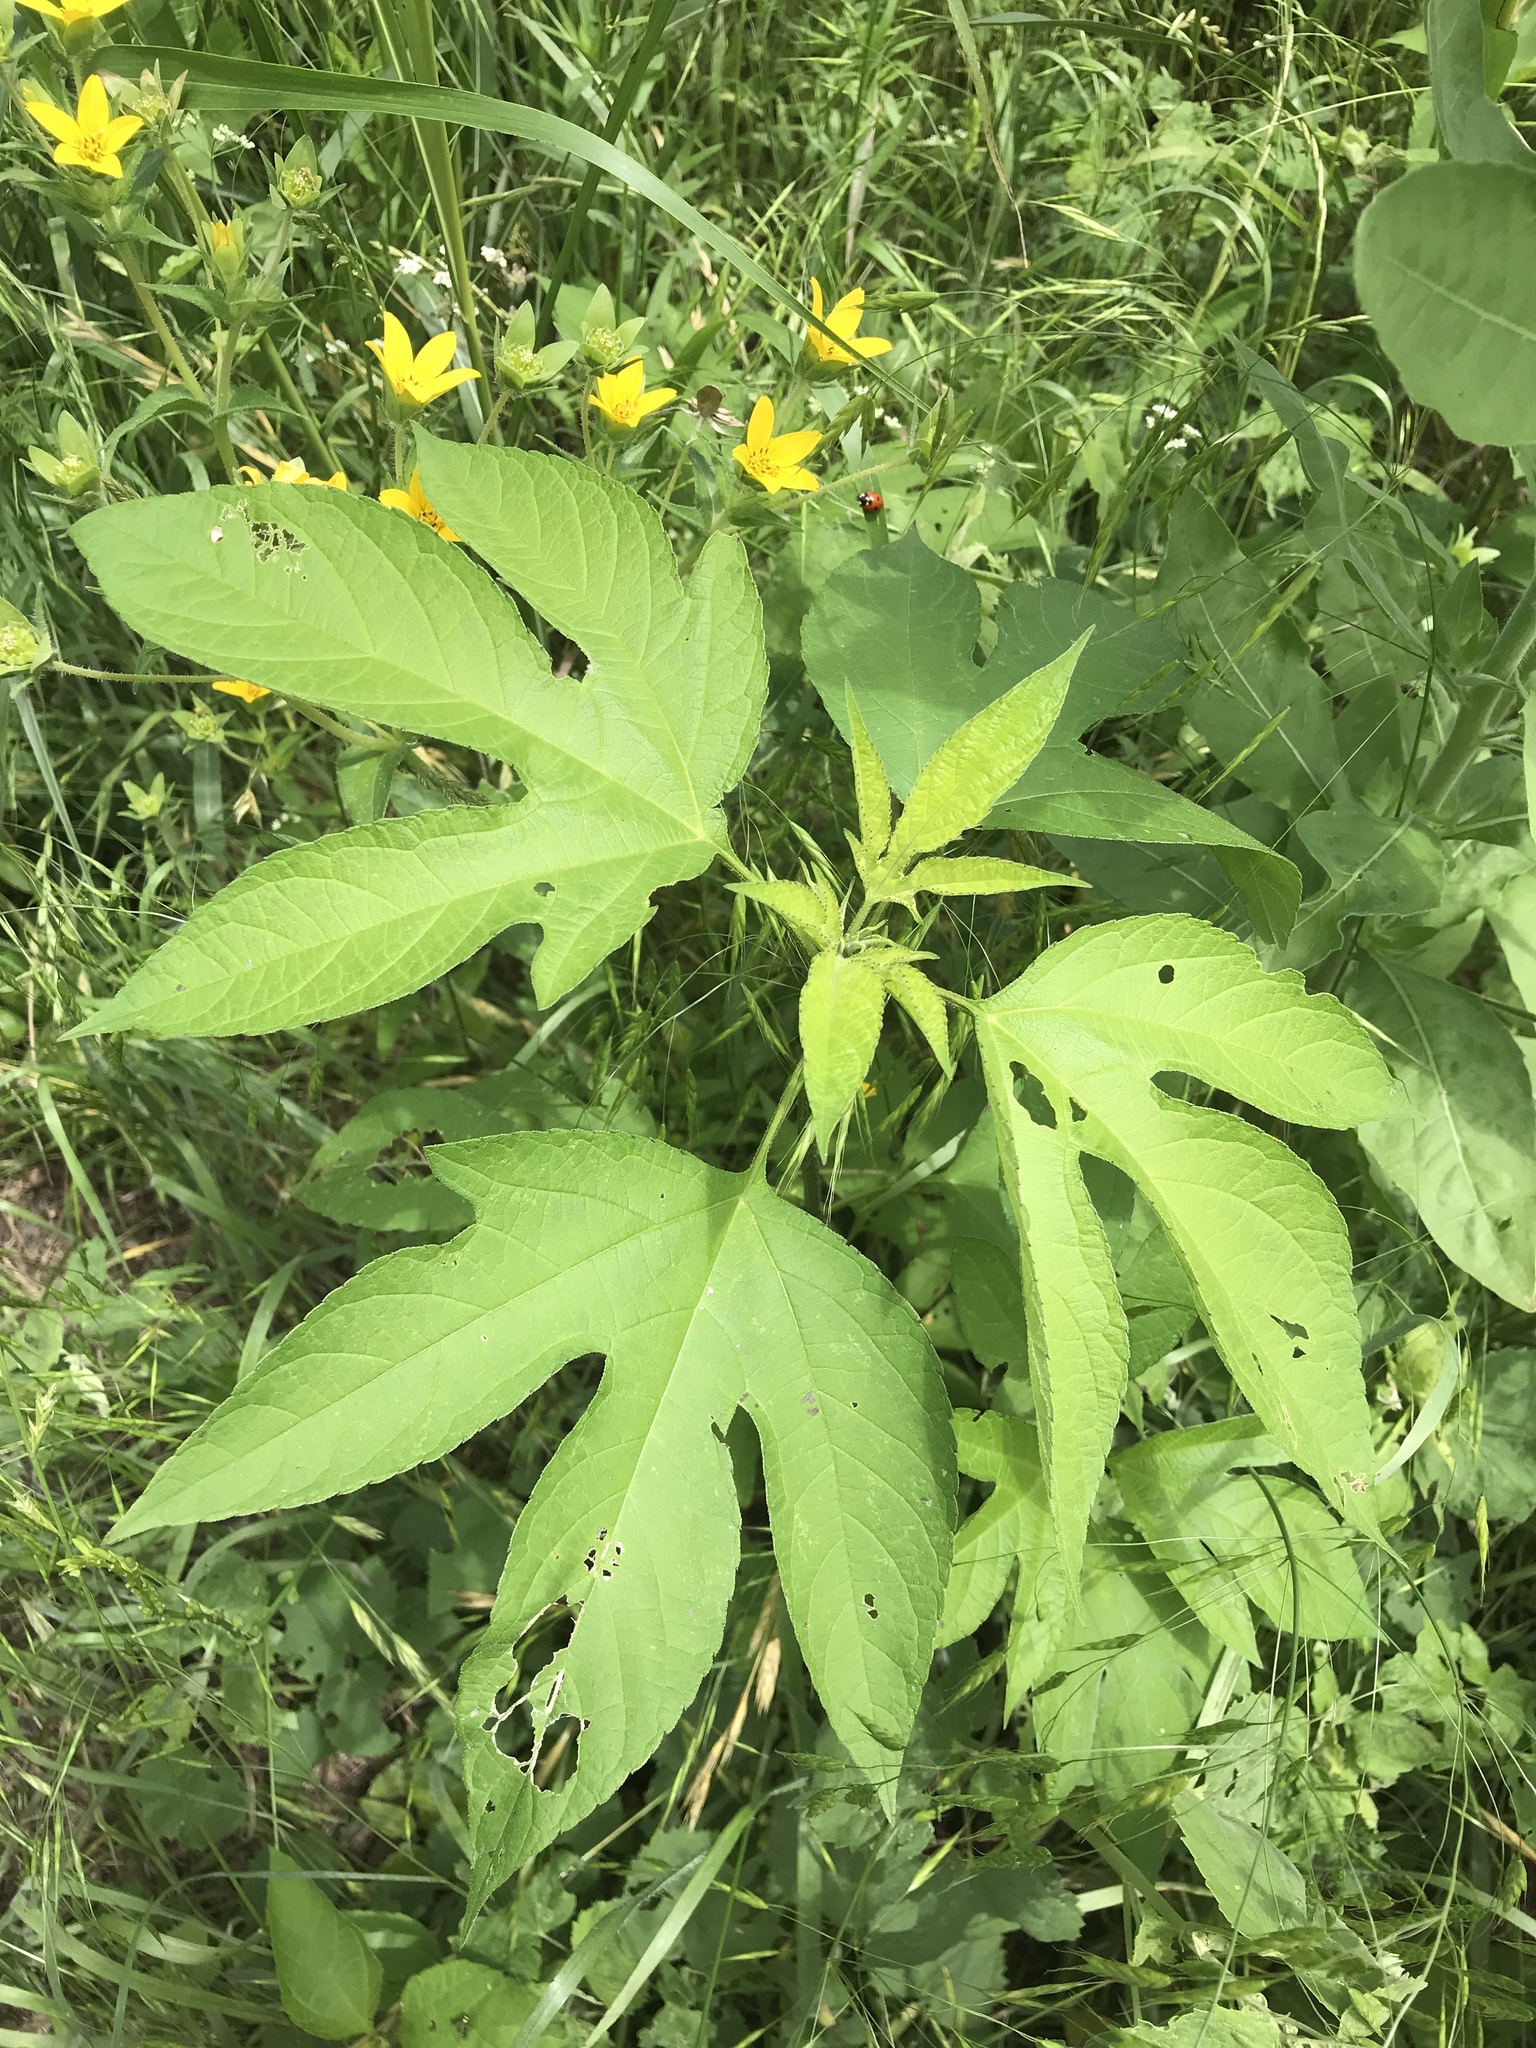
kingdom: Plantae
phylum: Tracheophyta
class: Magnoliopsida
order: Asterales
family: Asteraceae
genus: Ambrosia
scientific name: Ambrosia trifida
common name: Giant ragweed
